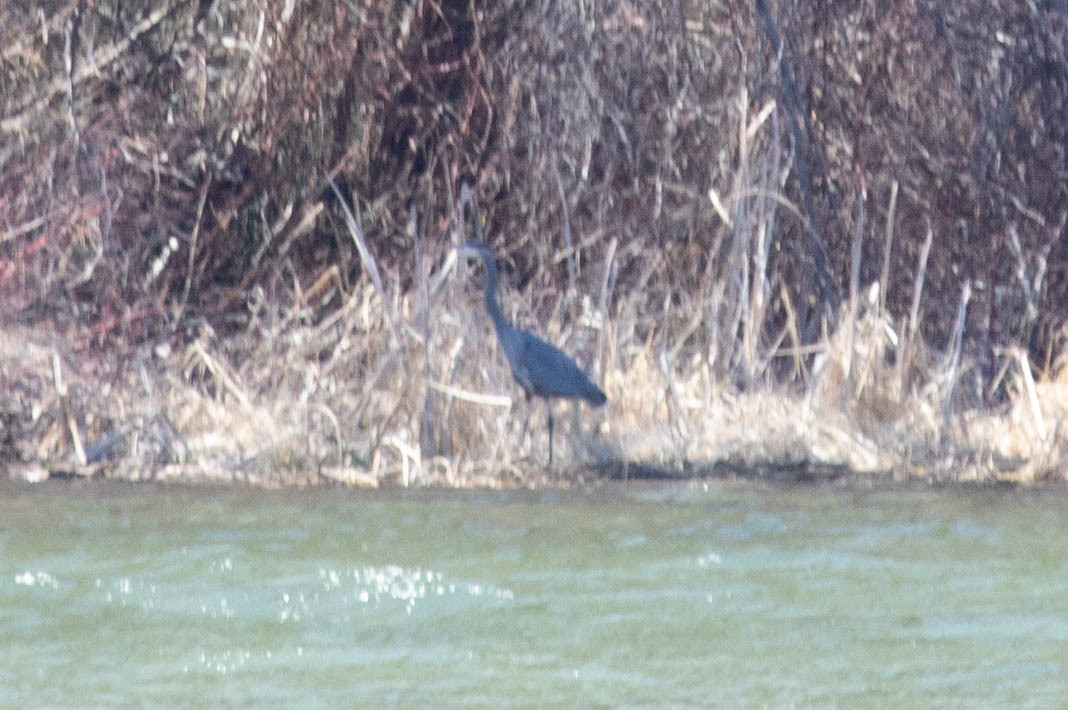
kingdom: Animalia
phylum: Chordata
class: Aves
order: Pelecaniformes
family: Ardeidae
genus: Ardea
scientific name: Ardea herodias
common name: Great blue heron
